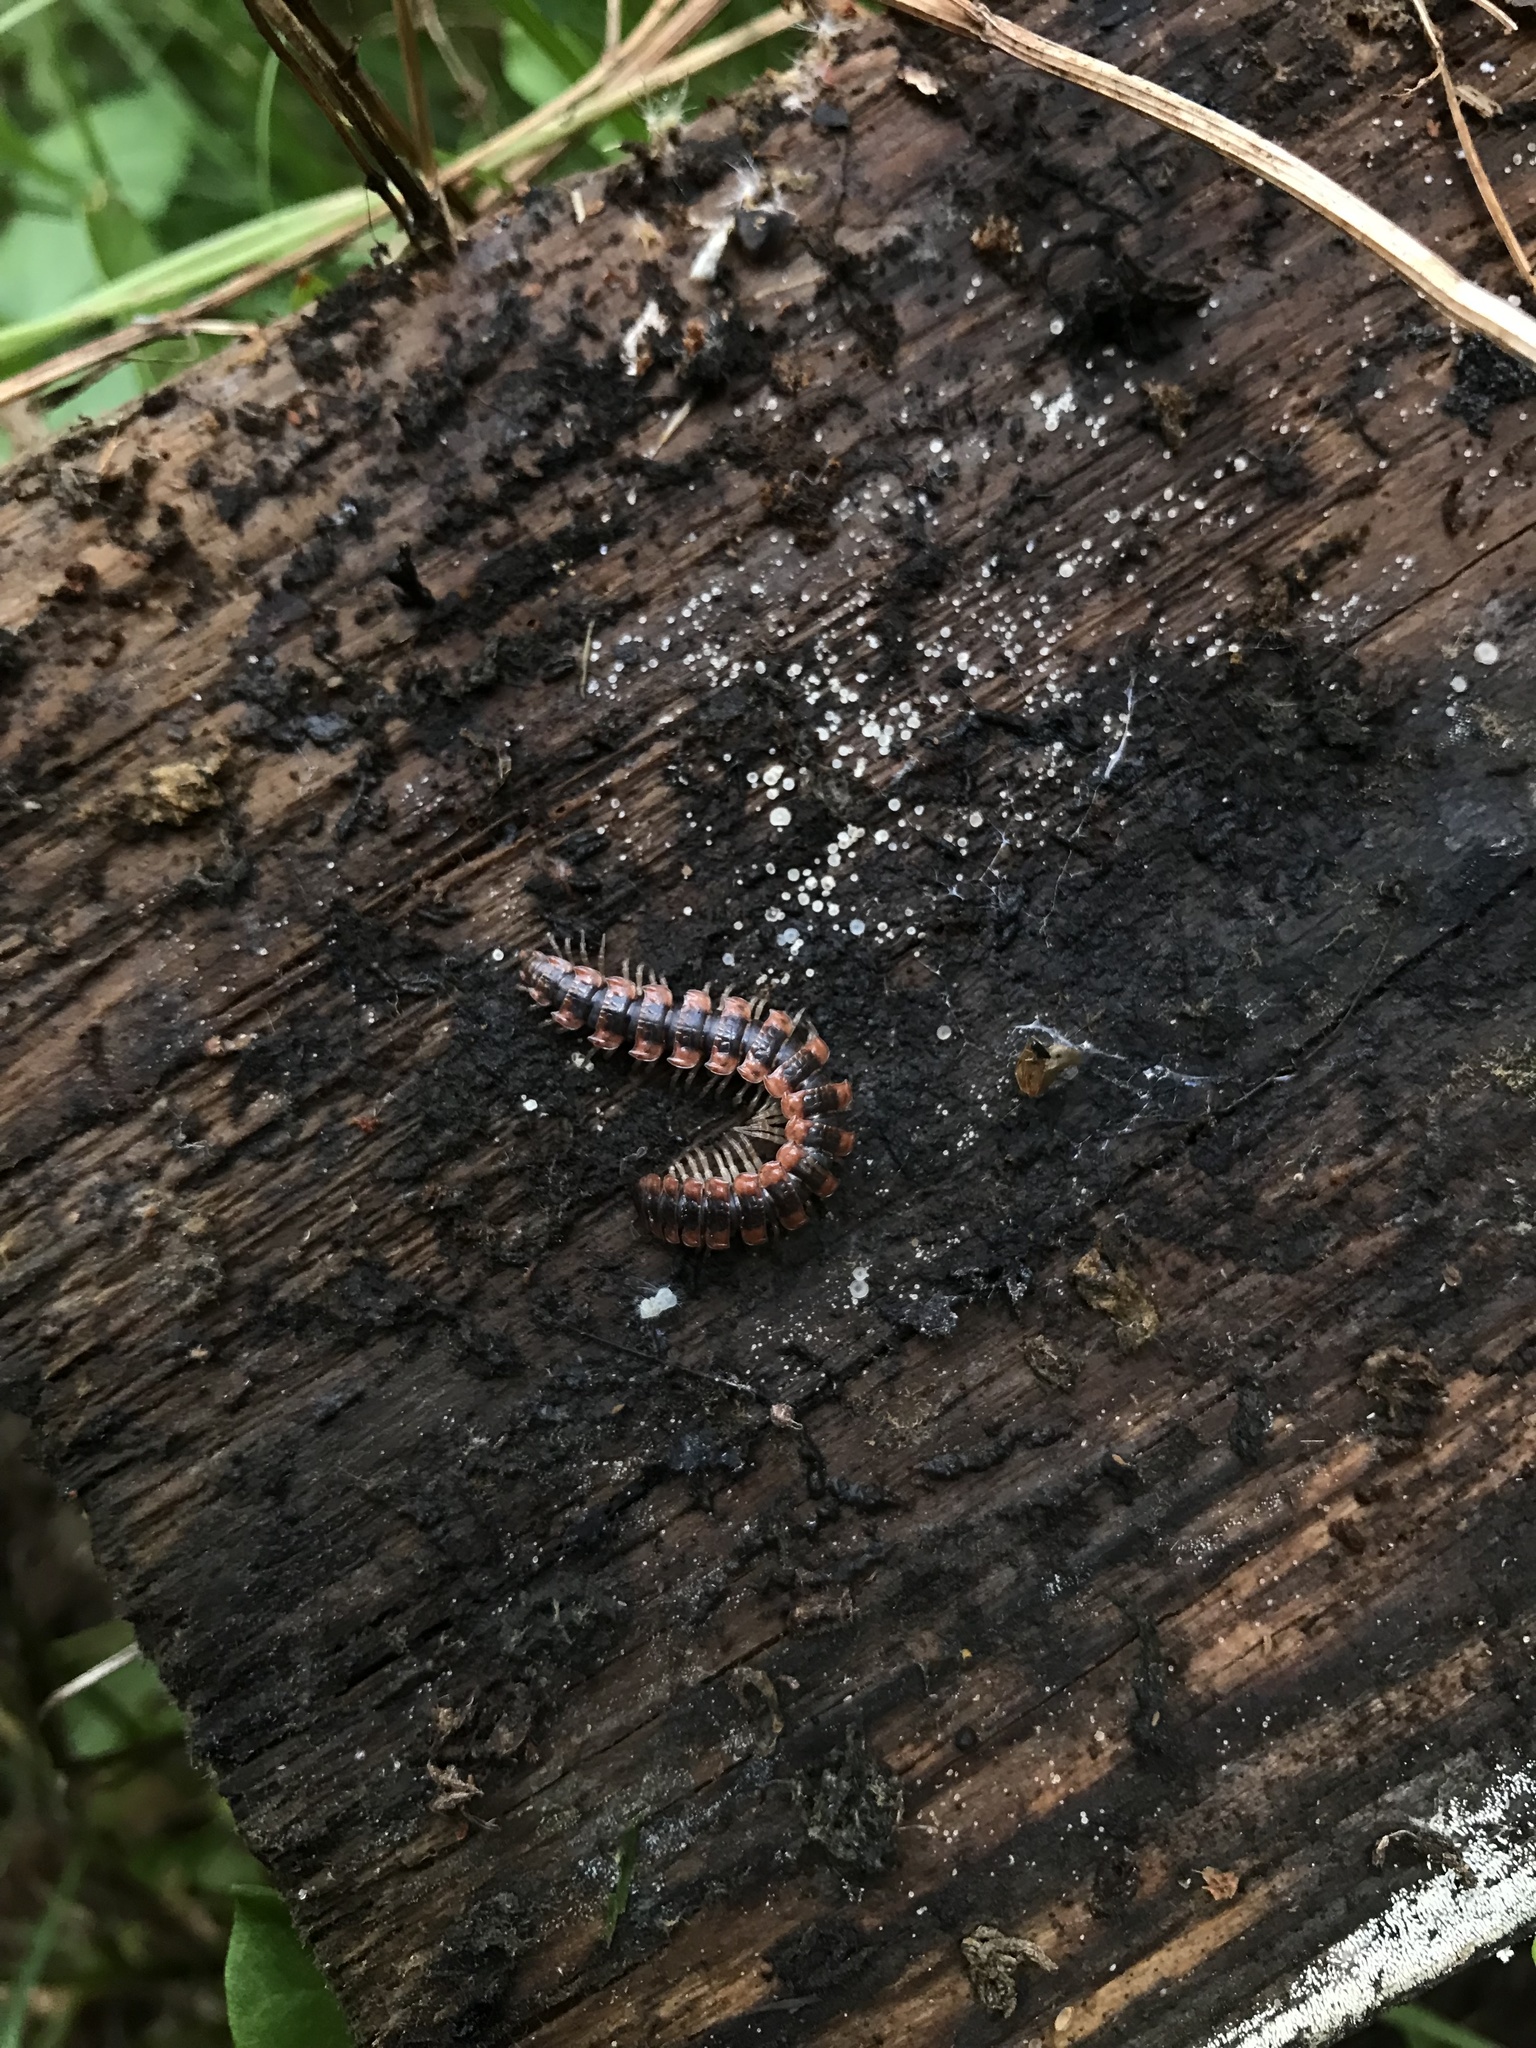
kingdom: Animalia
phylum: Arthropoda
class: Diplopoda
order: Polydesmida
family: Polydesmidae
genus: Pseudopolydesmus
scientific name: Pseudopolydesmus canadensis
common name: Canadian flat-back millipede
